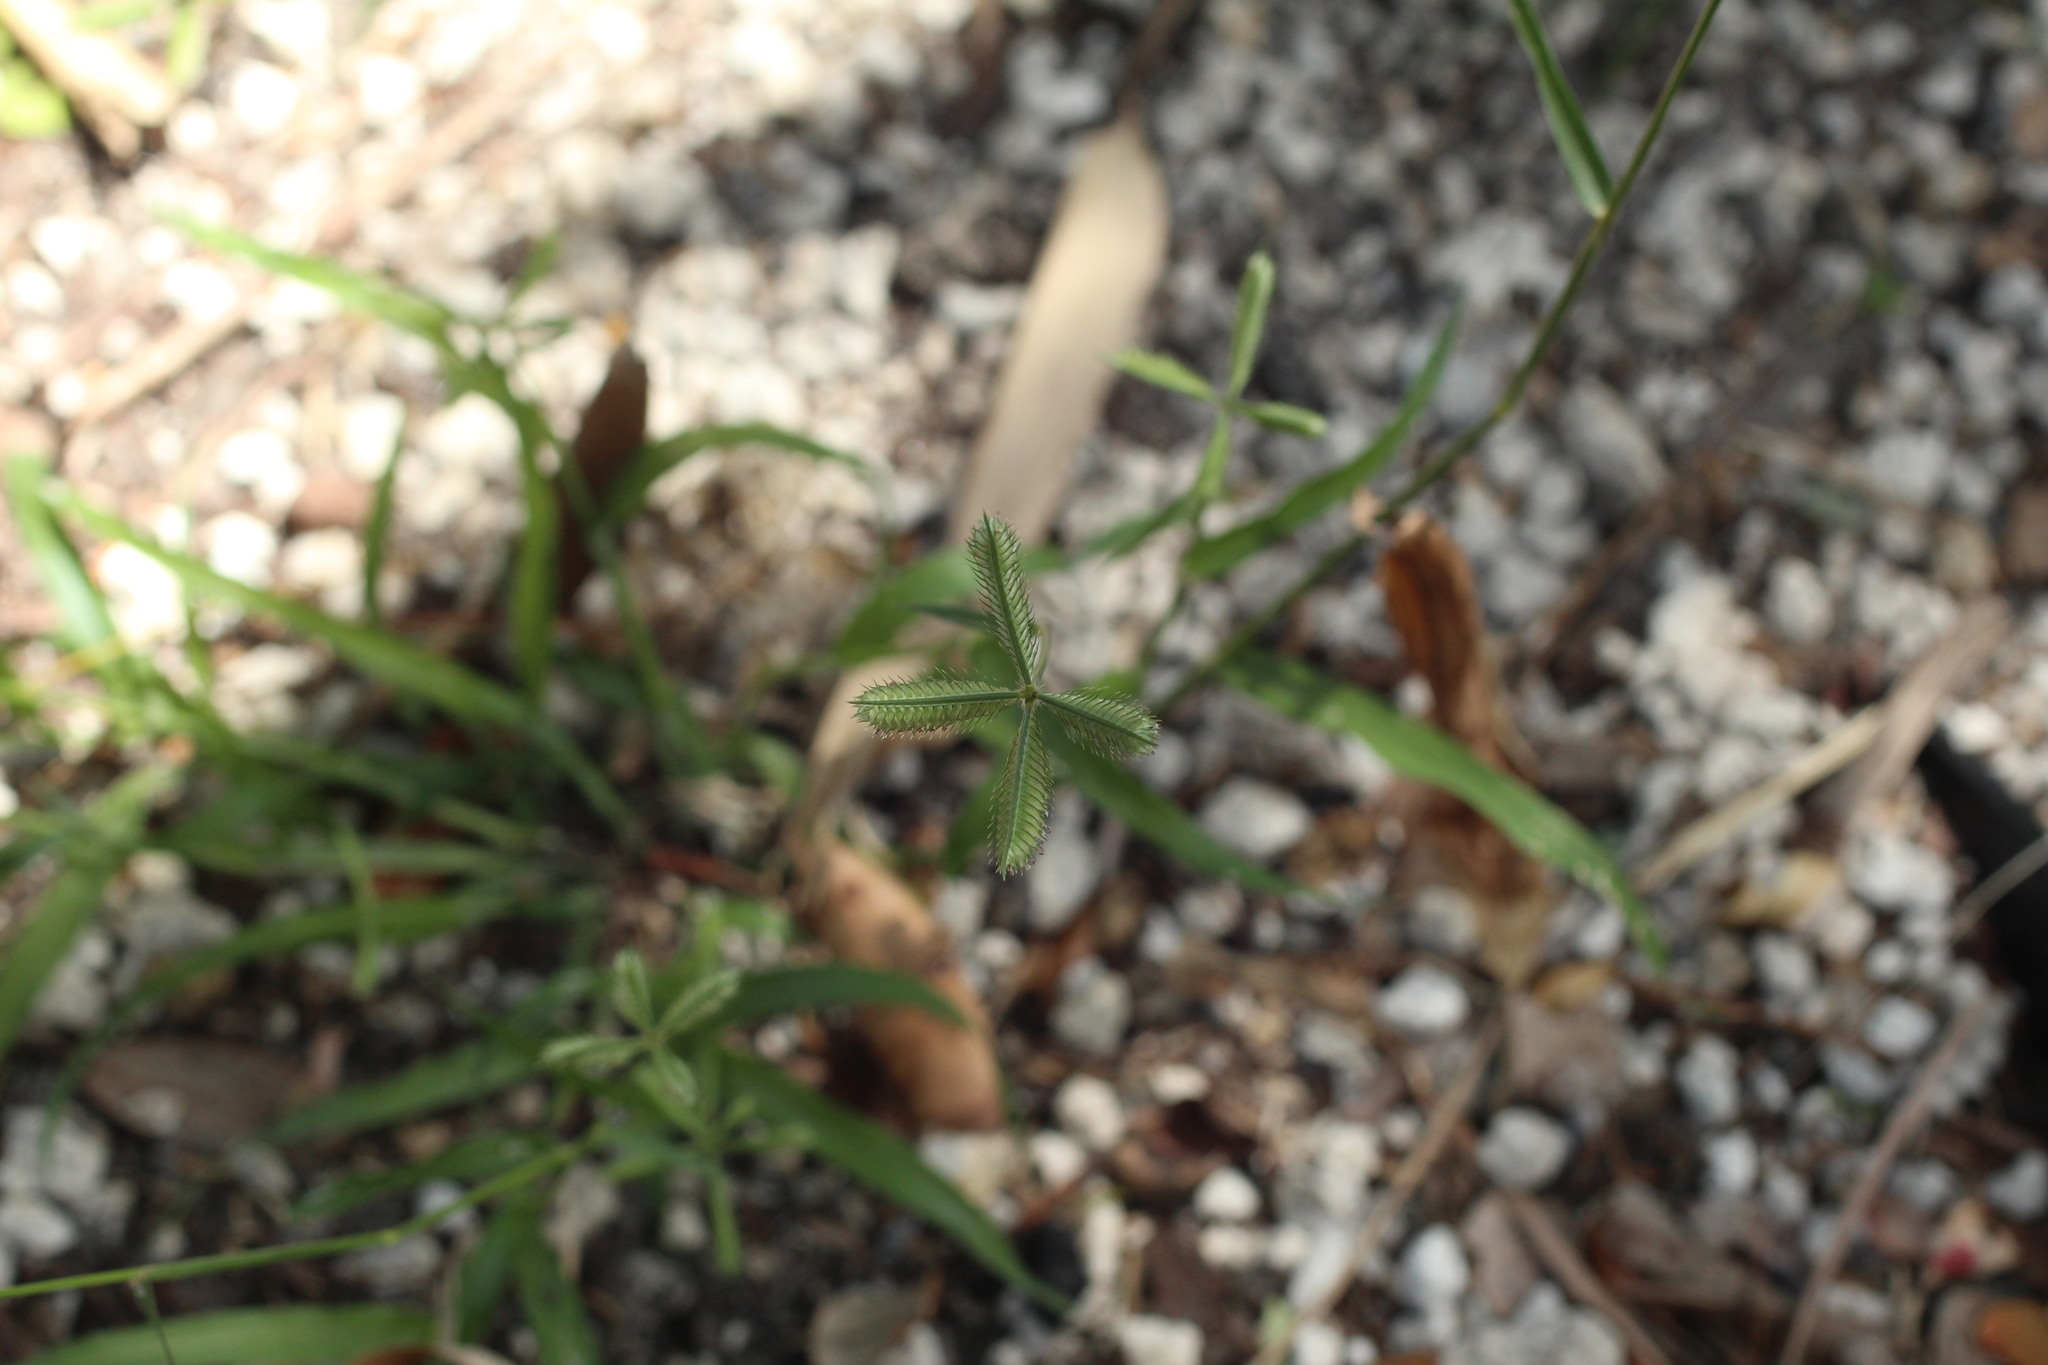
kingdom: Plantae
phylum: Tracheophyta
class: Liliopsida
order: Poales
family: Poaceae
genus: Dactyloctenium
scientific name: Dactyloctenium aegyptium
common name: Egyptian grass
